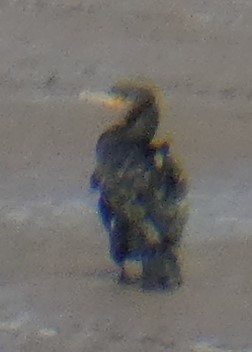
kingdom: Animalia
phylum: Chordata
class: Aves
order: Suliformes
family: Phalacrocoracidae
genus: Phalacrocorax
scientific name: Phalacrocorax carbo
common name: Great cormorant
